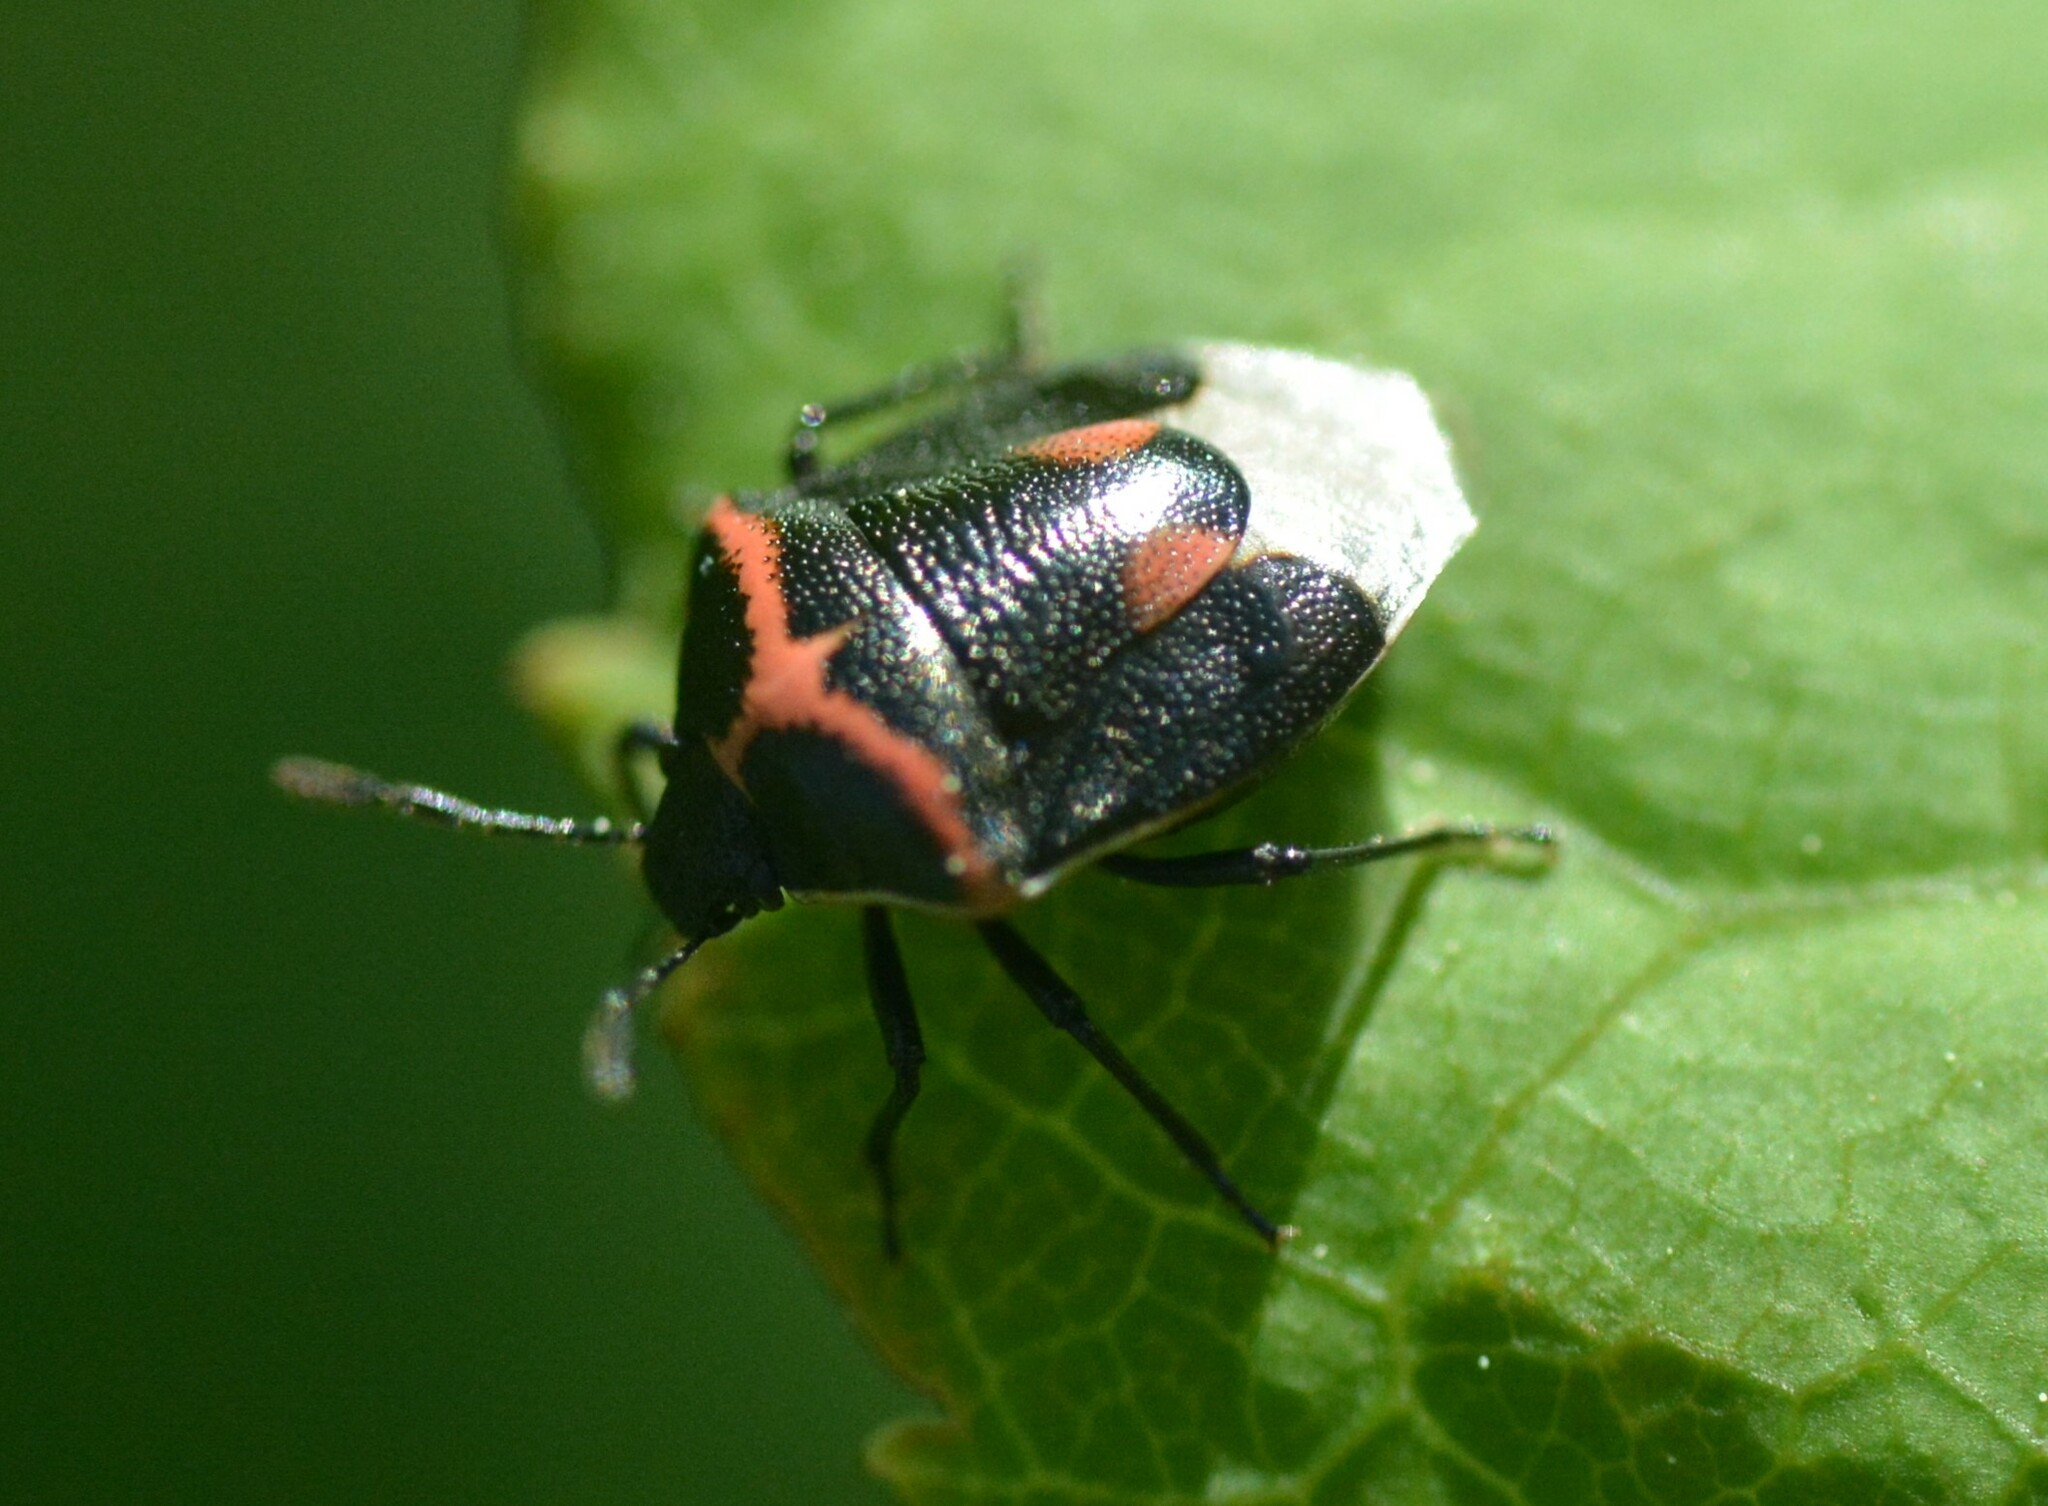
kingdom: Animalia
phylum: Arthropoda
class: Insecta
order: Hemiptera
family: Pentatomidae
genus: Cosmopepla
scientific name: Cosmopepla lintneriana
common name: Twice-stabbed stink bug
